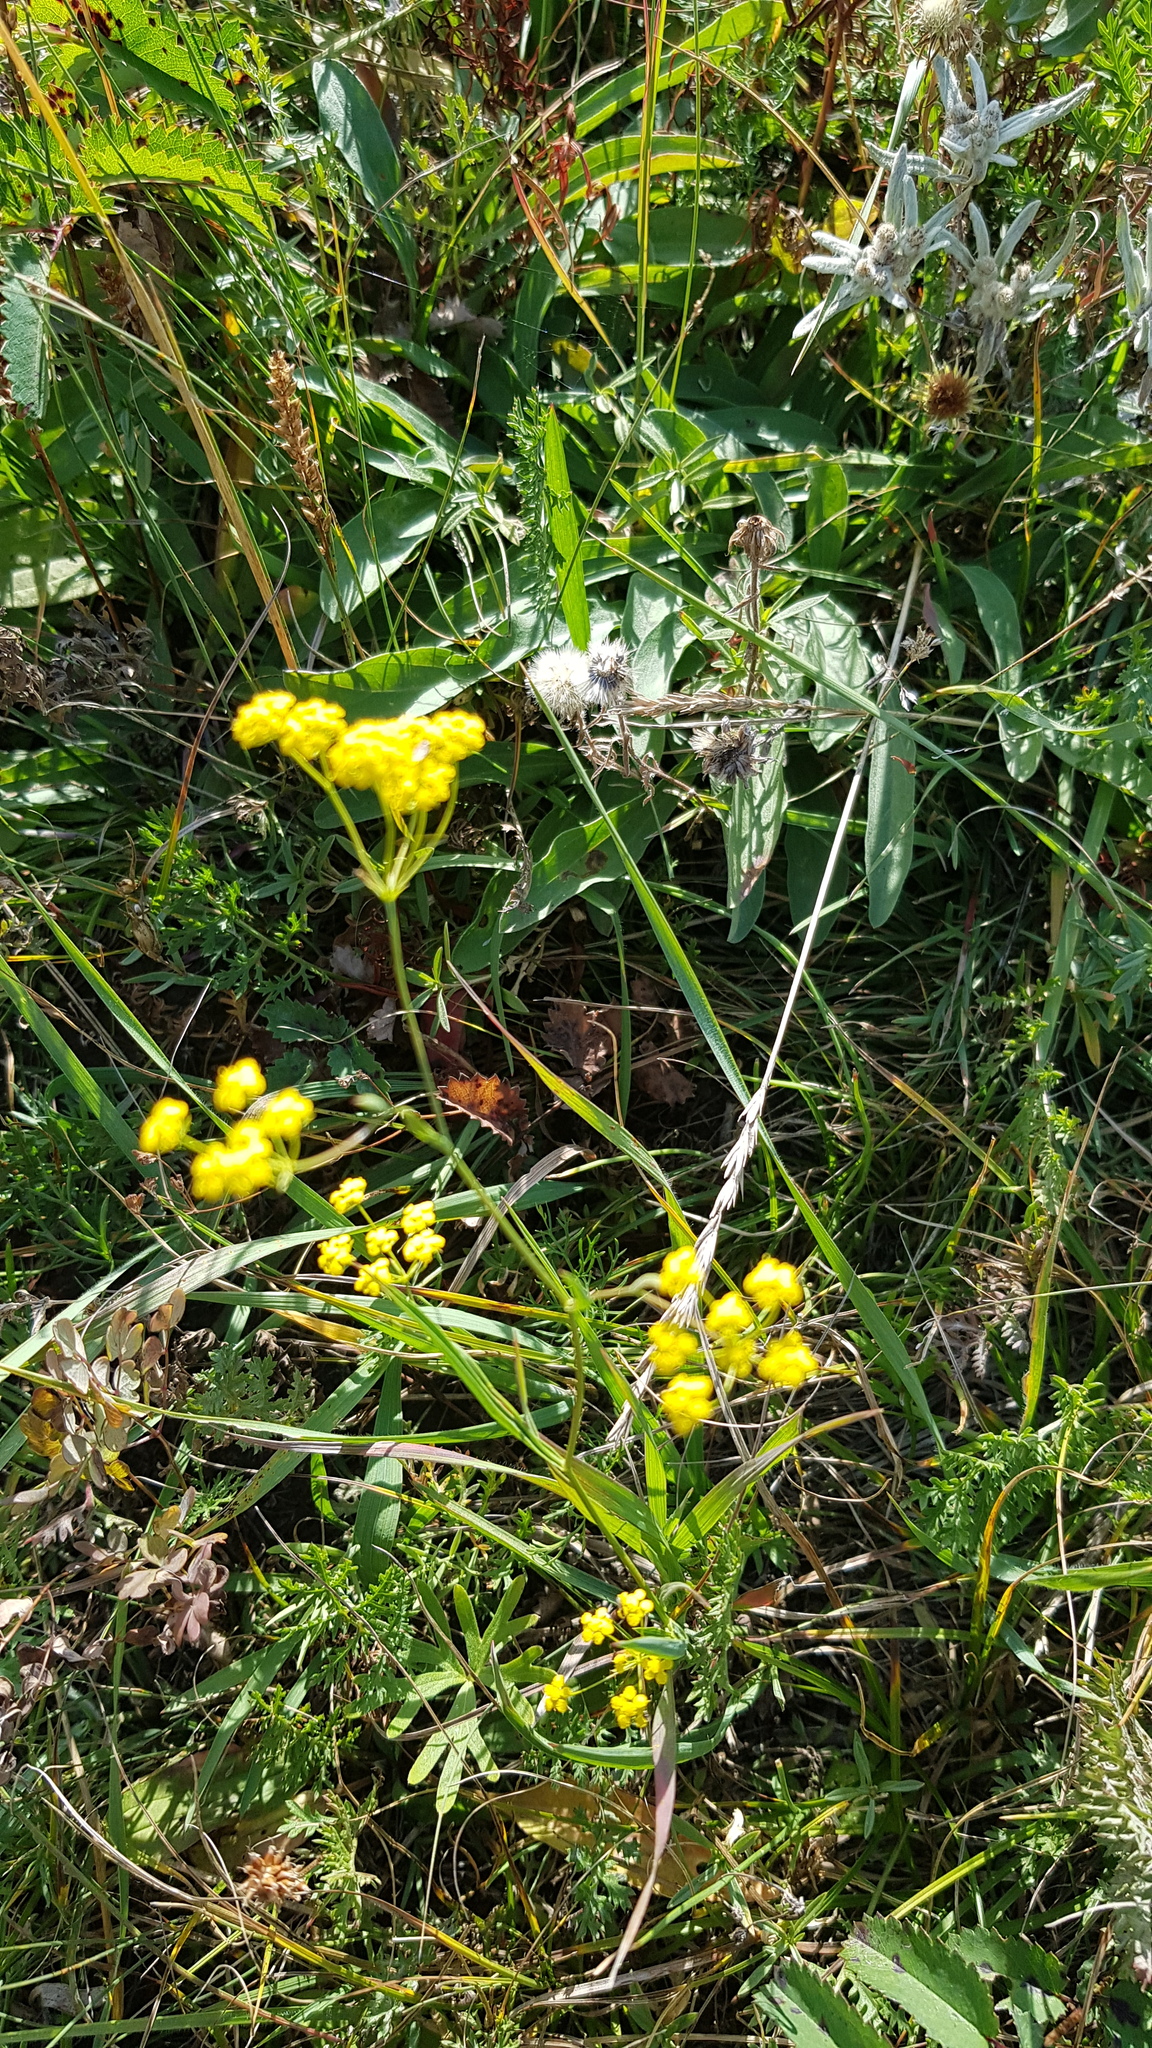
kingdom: Plantae
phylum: Tracheophyta
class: Magnoliopsida
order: Apiales
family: Apiaceae
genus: Bupleurum
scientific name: Bupleurum scorzonerifolium
